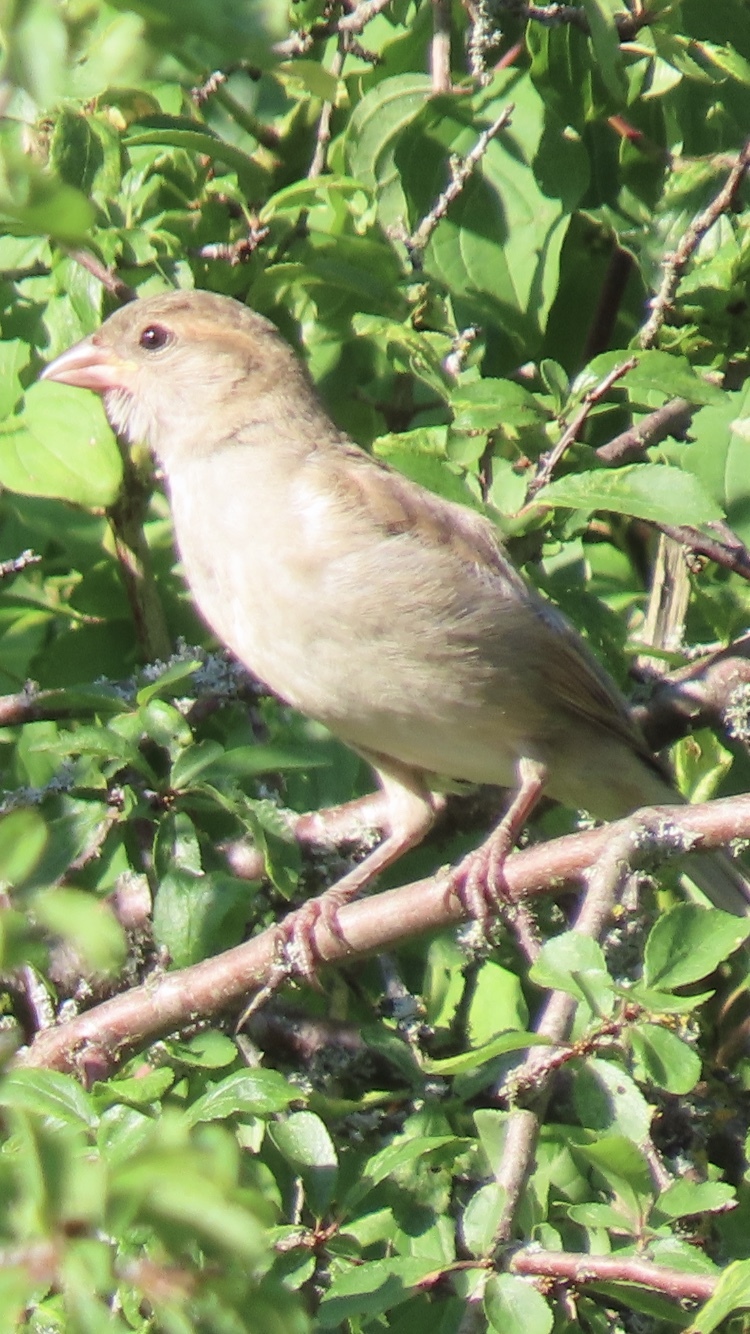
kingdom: Animalia
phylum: Chordata
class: Aves
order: Passeriformes
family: Passeridae
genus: Passer
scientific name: Passer domesticus
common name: House sparrow
